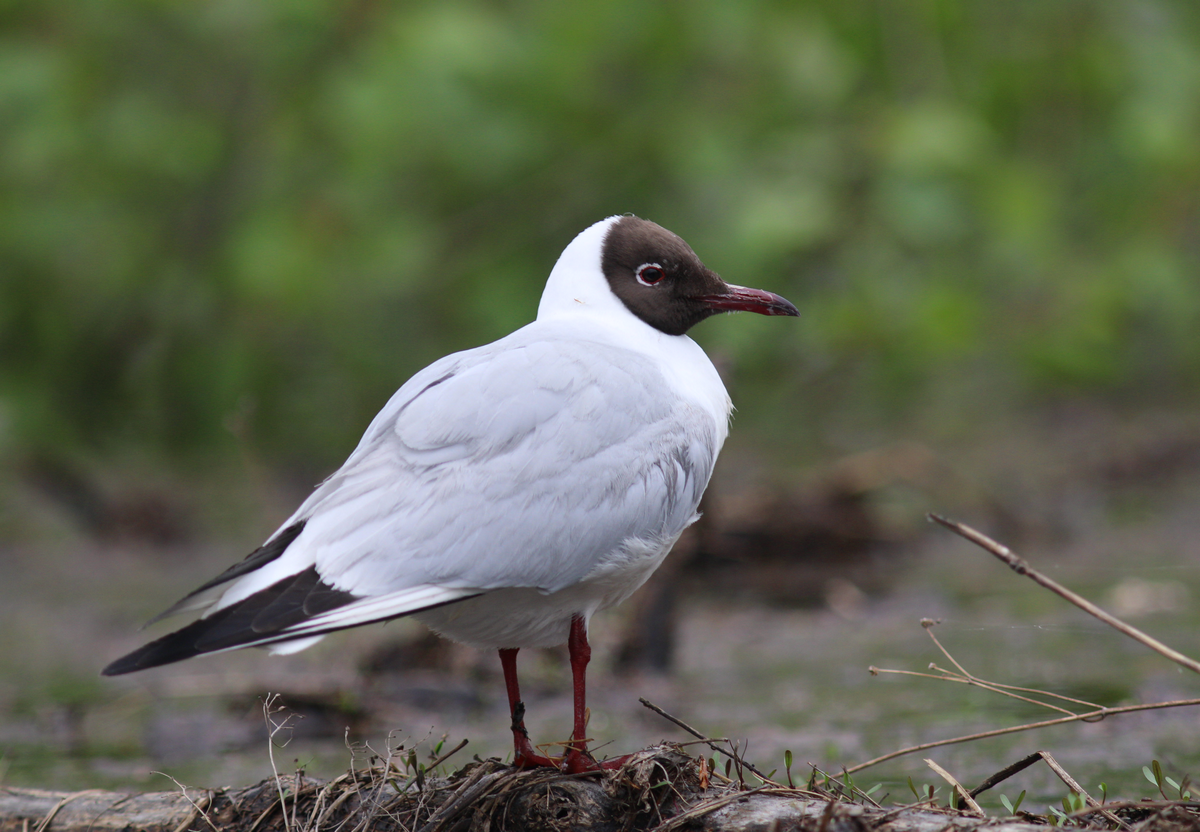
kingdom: Animalia
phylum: Chordata
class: Aves
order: Charadriiformes
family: Laridae
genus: Chroicocephalus
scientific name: Chroicocephalus ridibundus
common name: Black-headed gull
